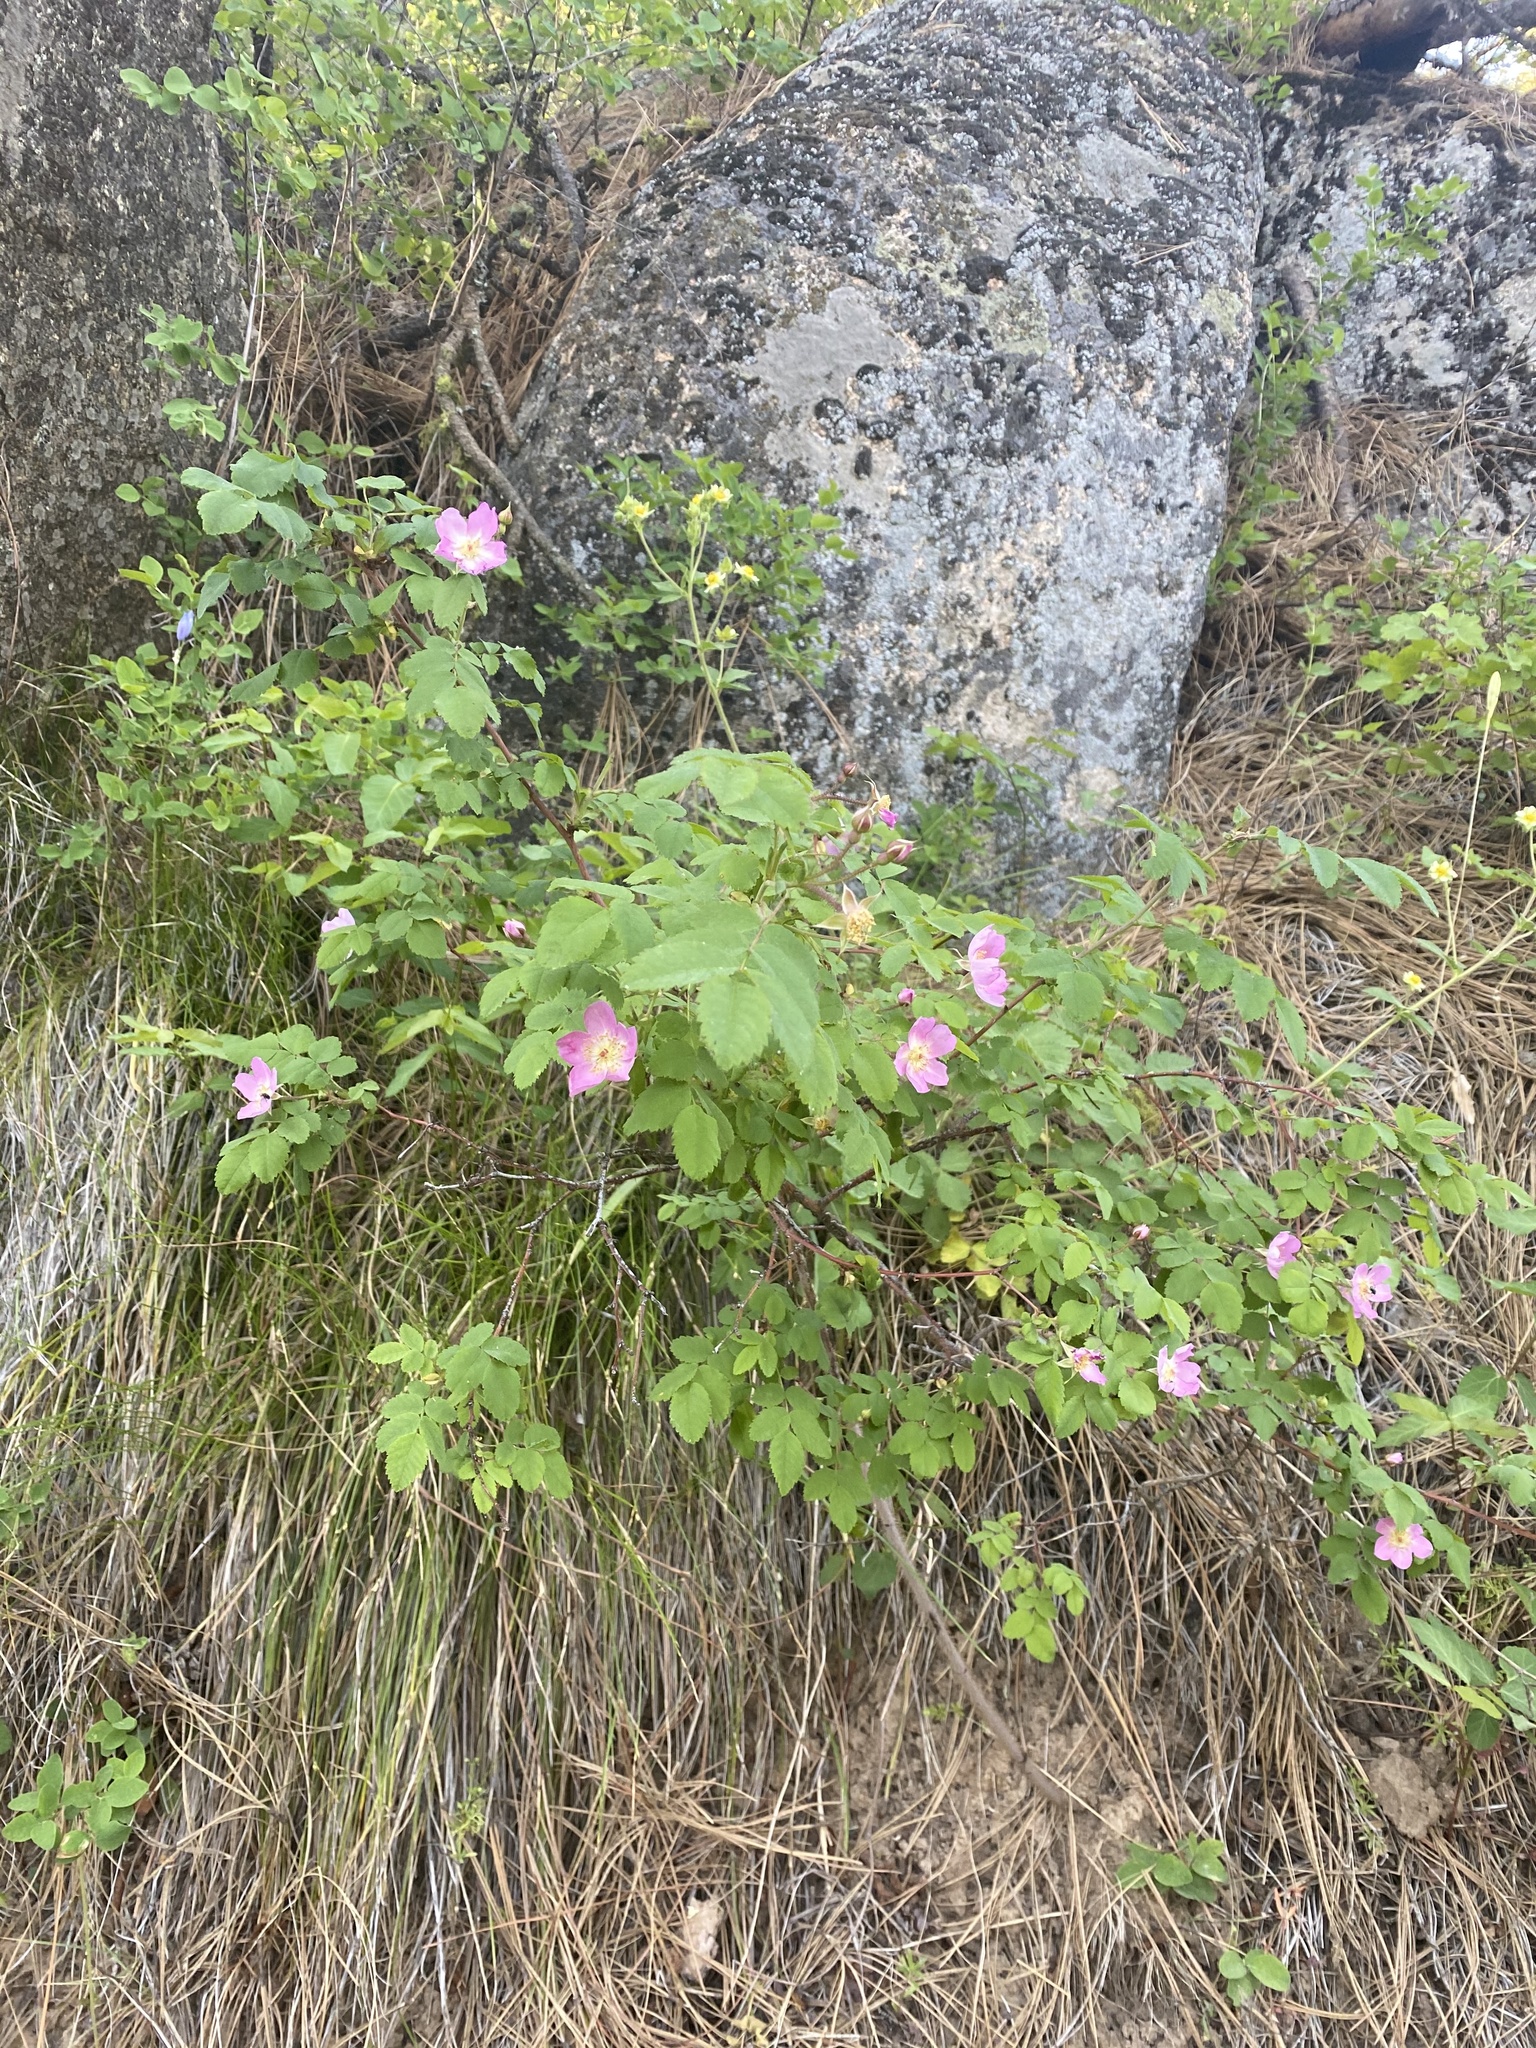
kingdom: Plantae
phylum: Tracheophyta
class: Magnoliopsida
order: Rosales
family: Rosaceae
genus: Rosa
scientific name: Rosa gymnocarpa
